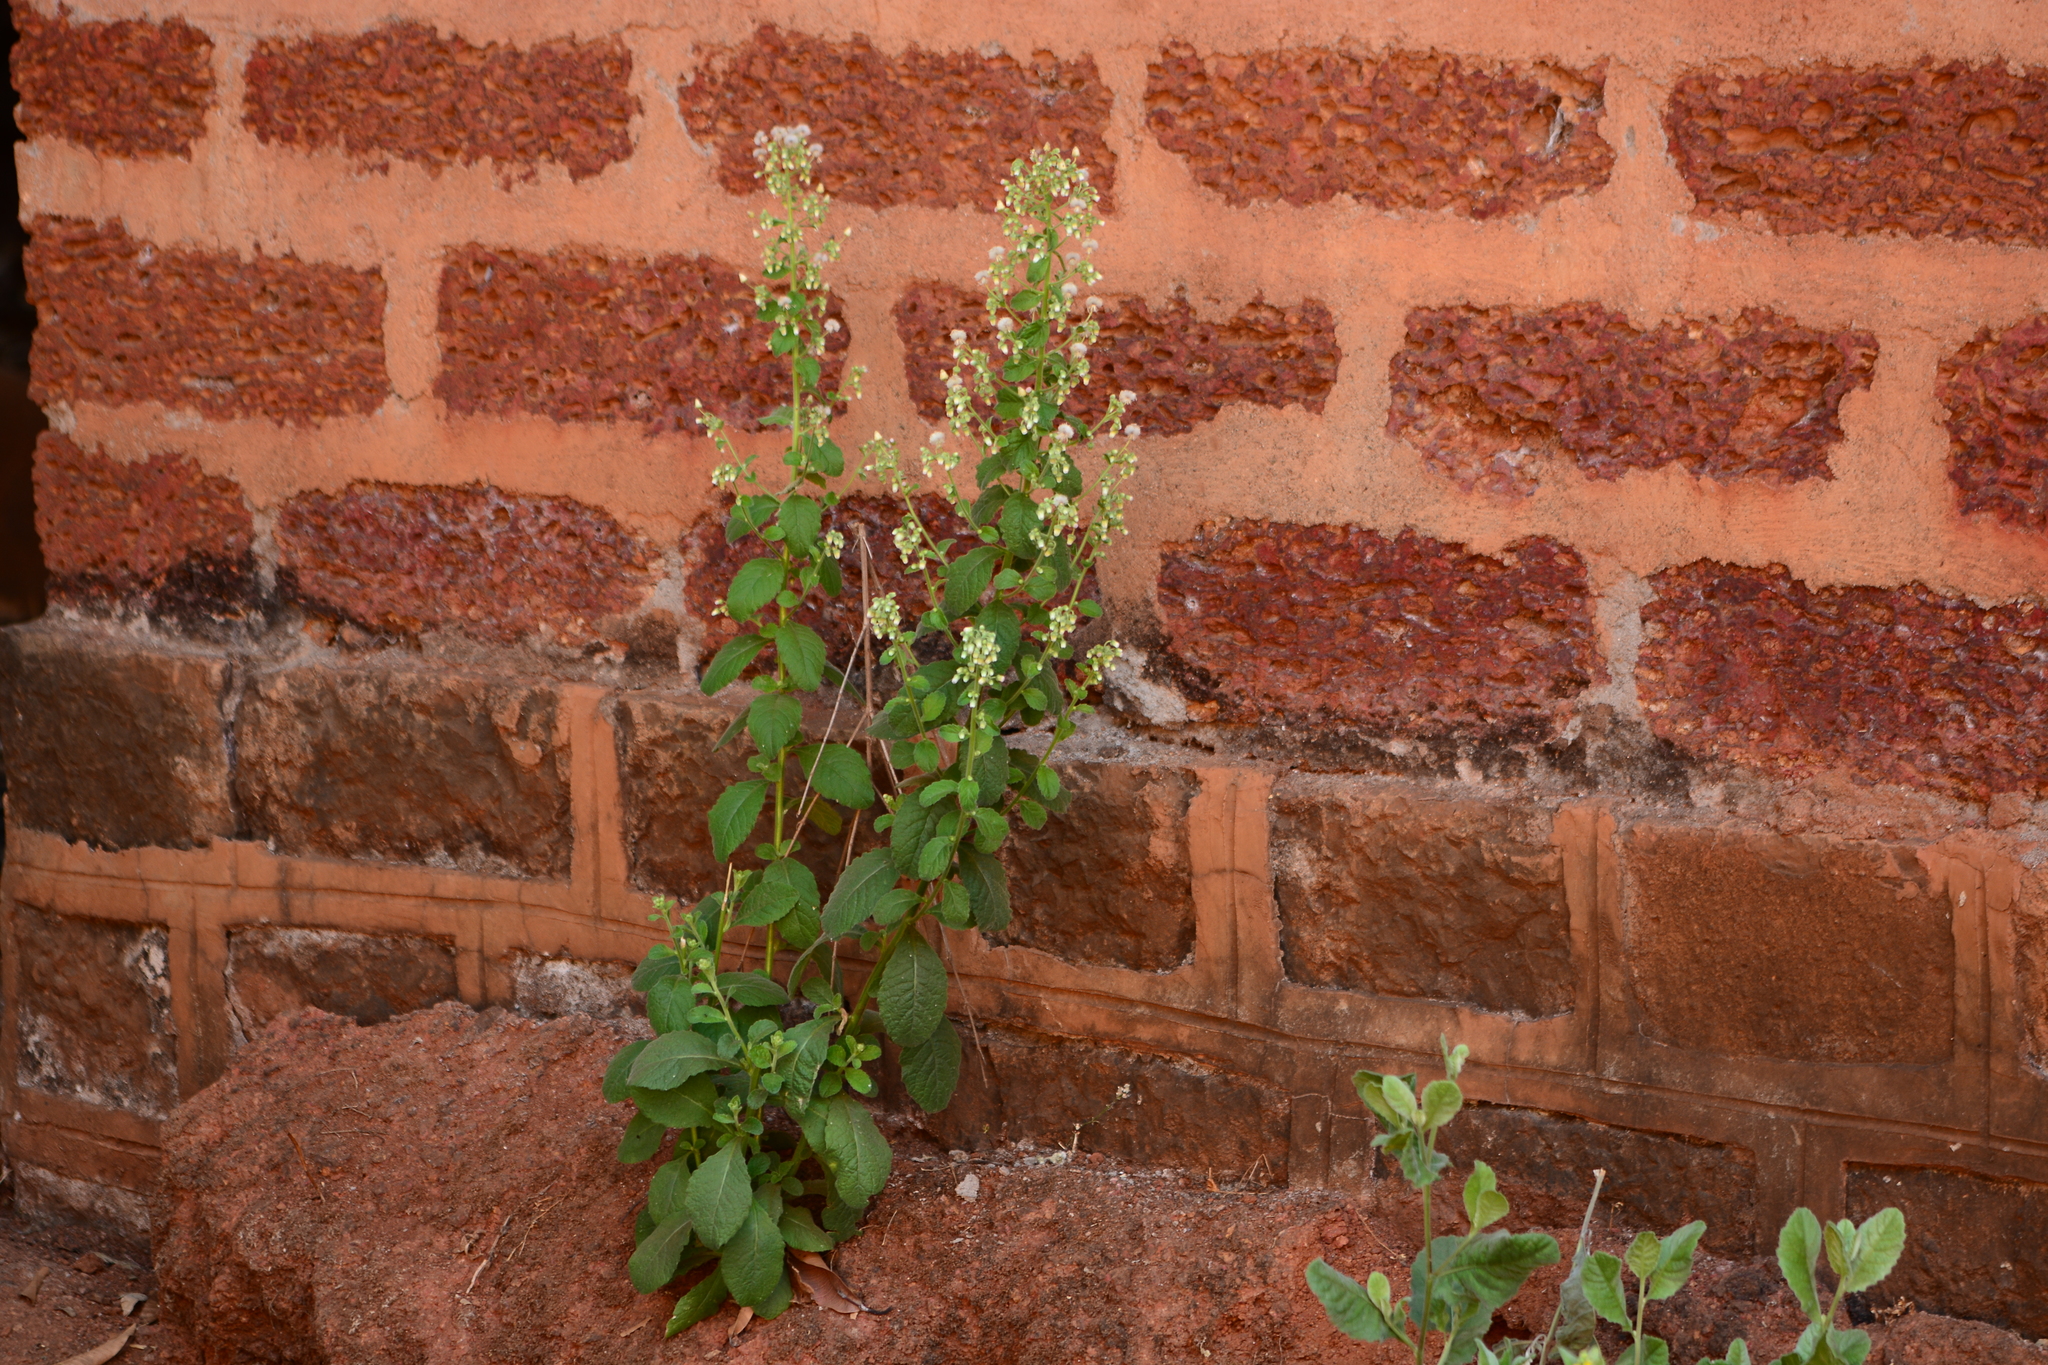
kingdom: Plantae
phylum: Tracheophyta
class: Magnoliopsida
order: Asterales
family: Asteraceae
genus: Blumea
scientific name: Blumea axillaris
